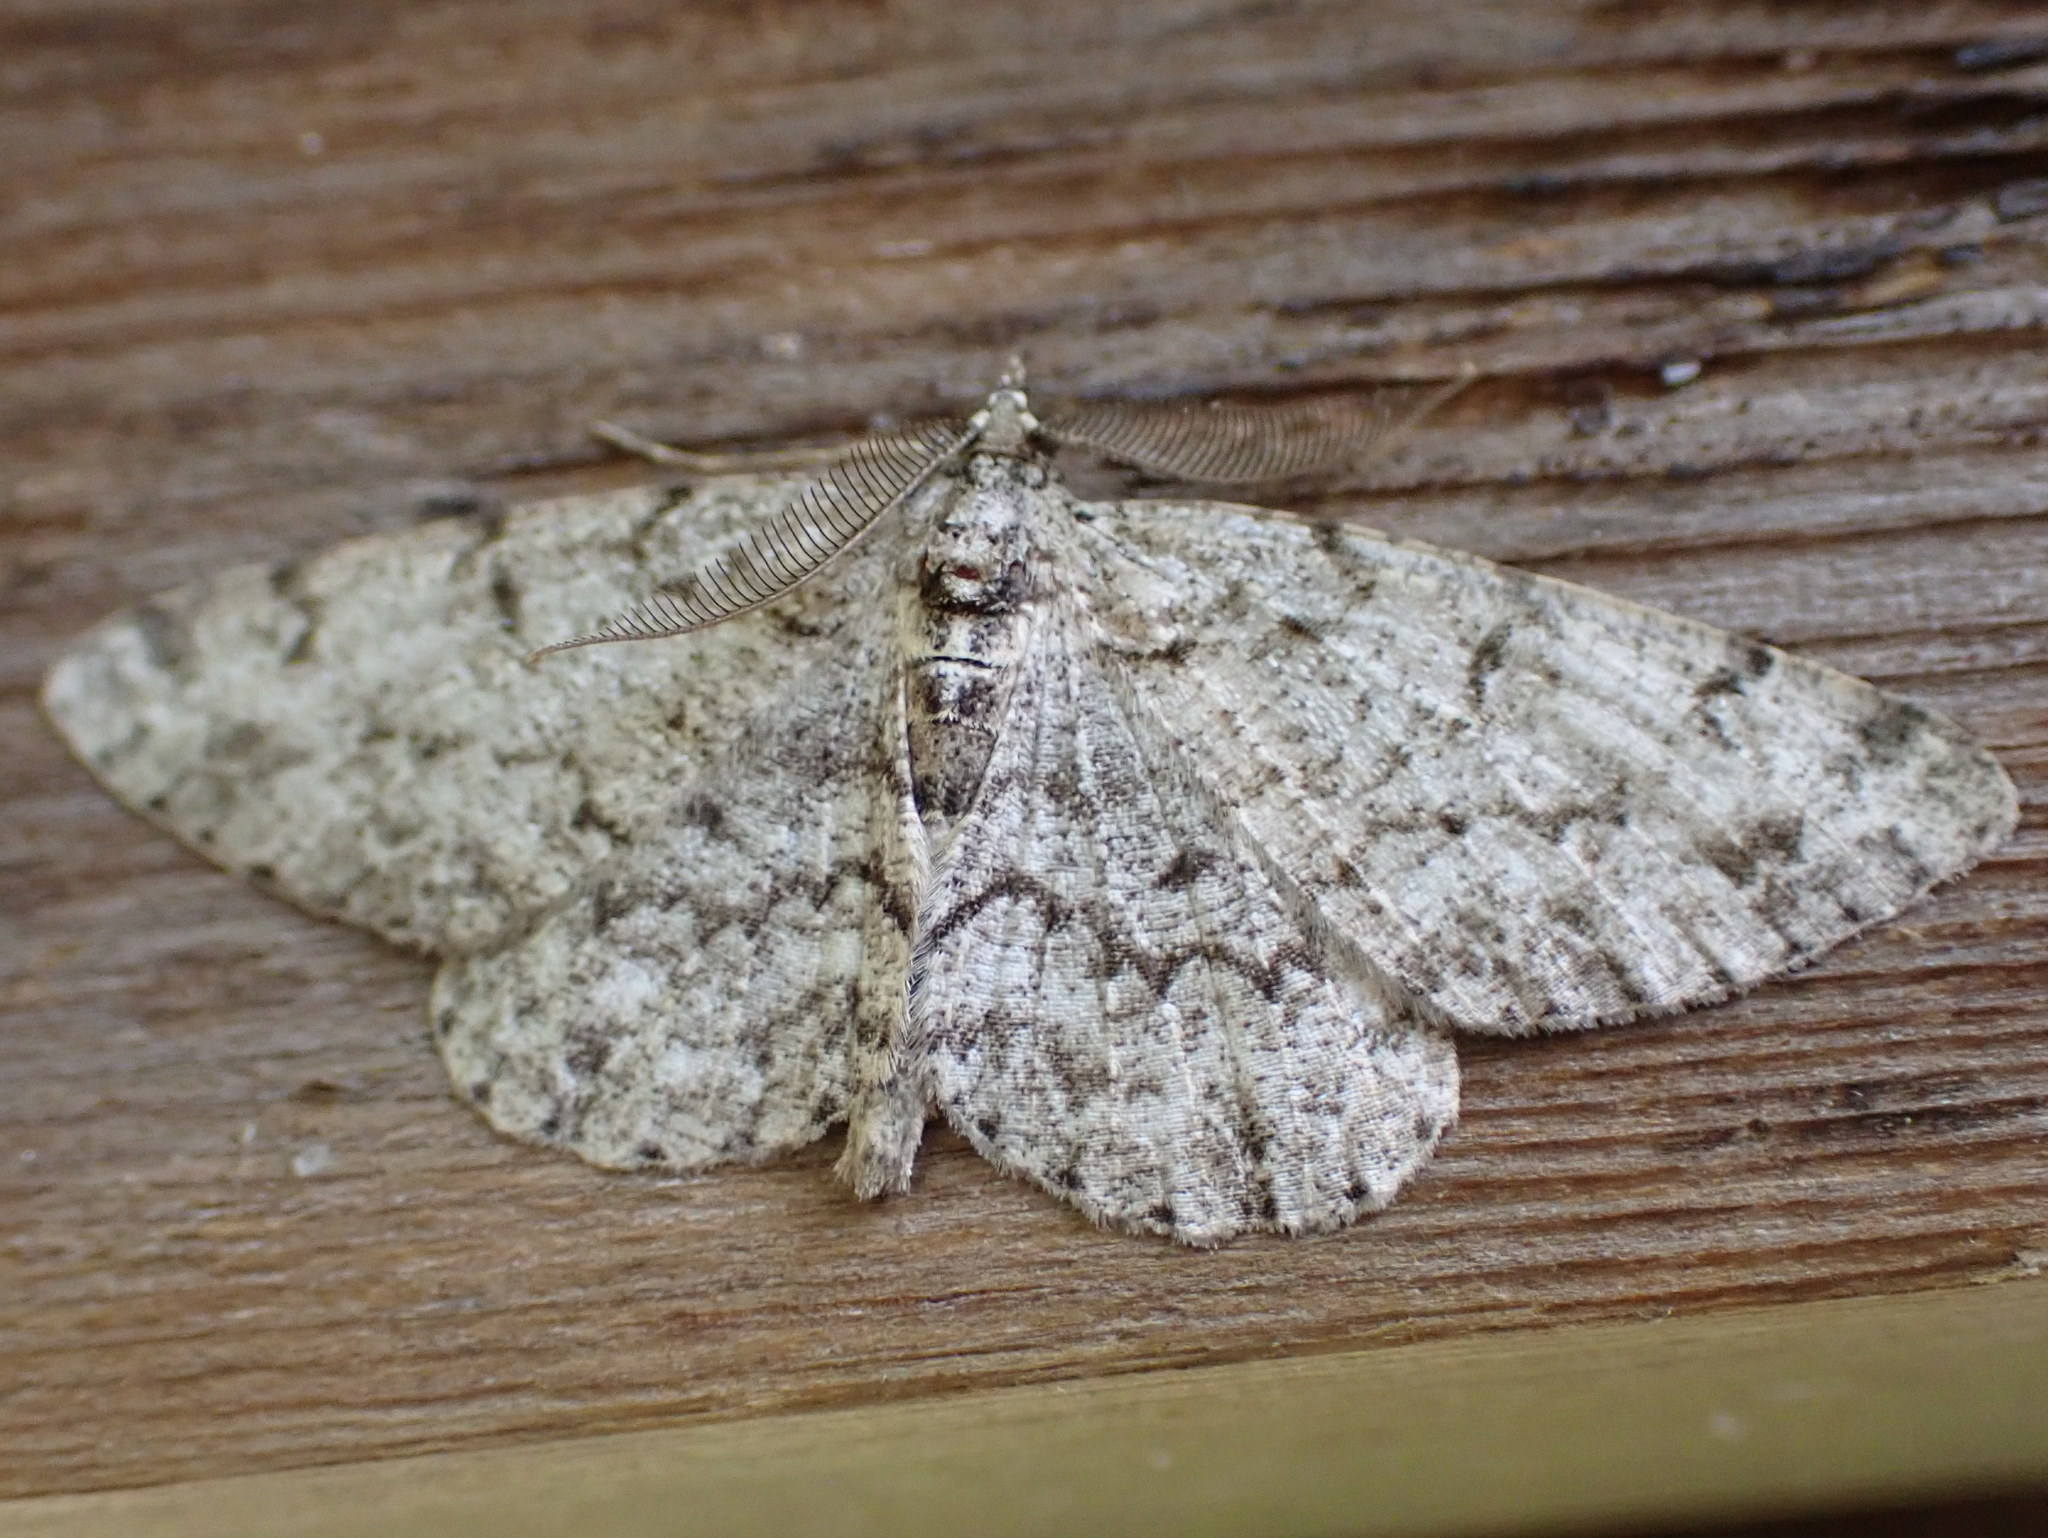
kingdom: Animalia
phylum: Arthropoda
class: Insecta
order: Lepidoptera
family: Geometridae
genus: Protoboarmia
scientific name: Protoboarmia porcelaria
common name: Porcelain gray
